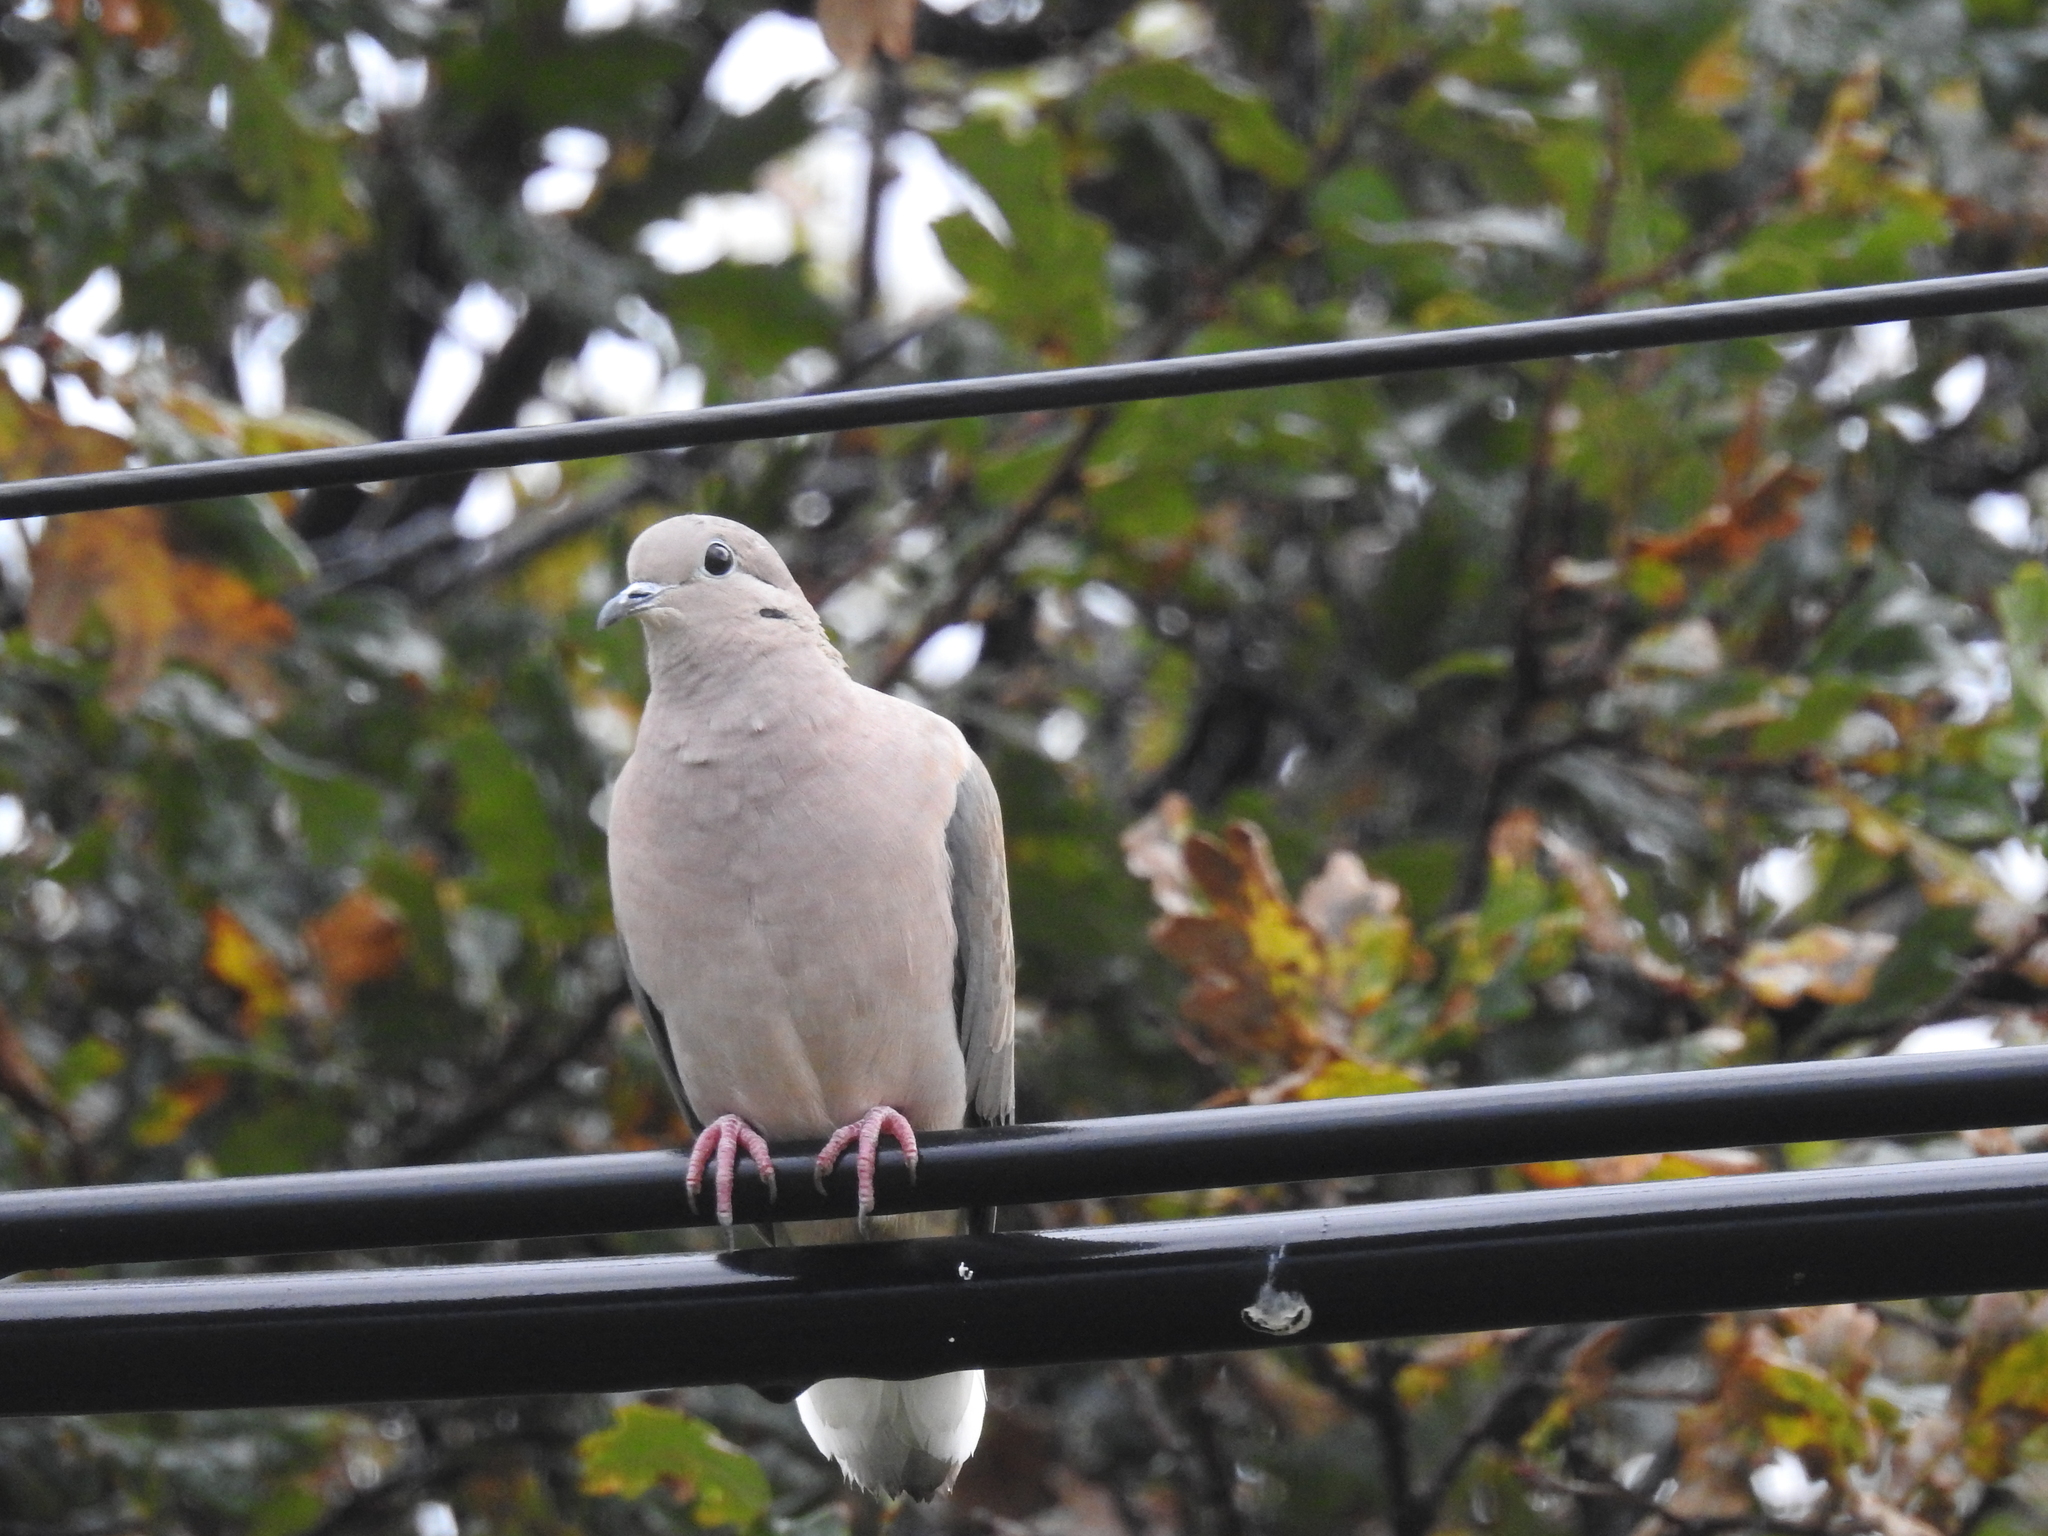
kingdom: Animalia
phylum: Chordata
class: Aves
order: Columbiformes
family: Columbidae
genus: Zenaida
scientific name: Zenaida auriculata
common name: Eared dove
